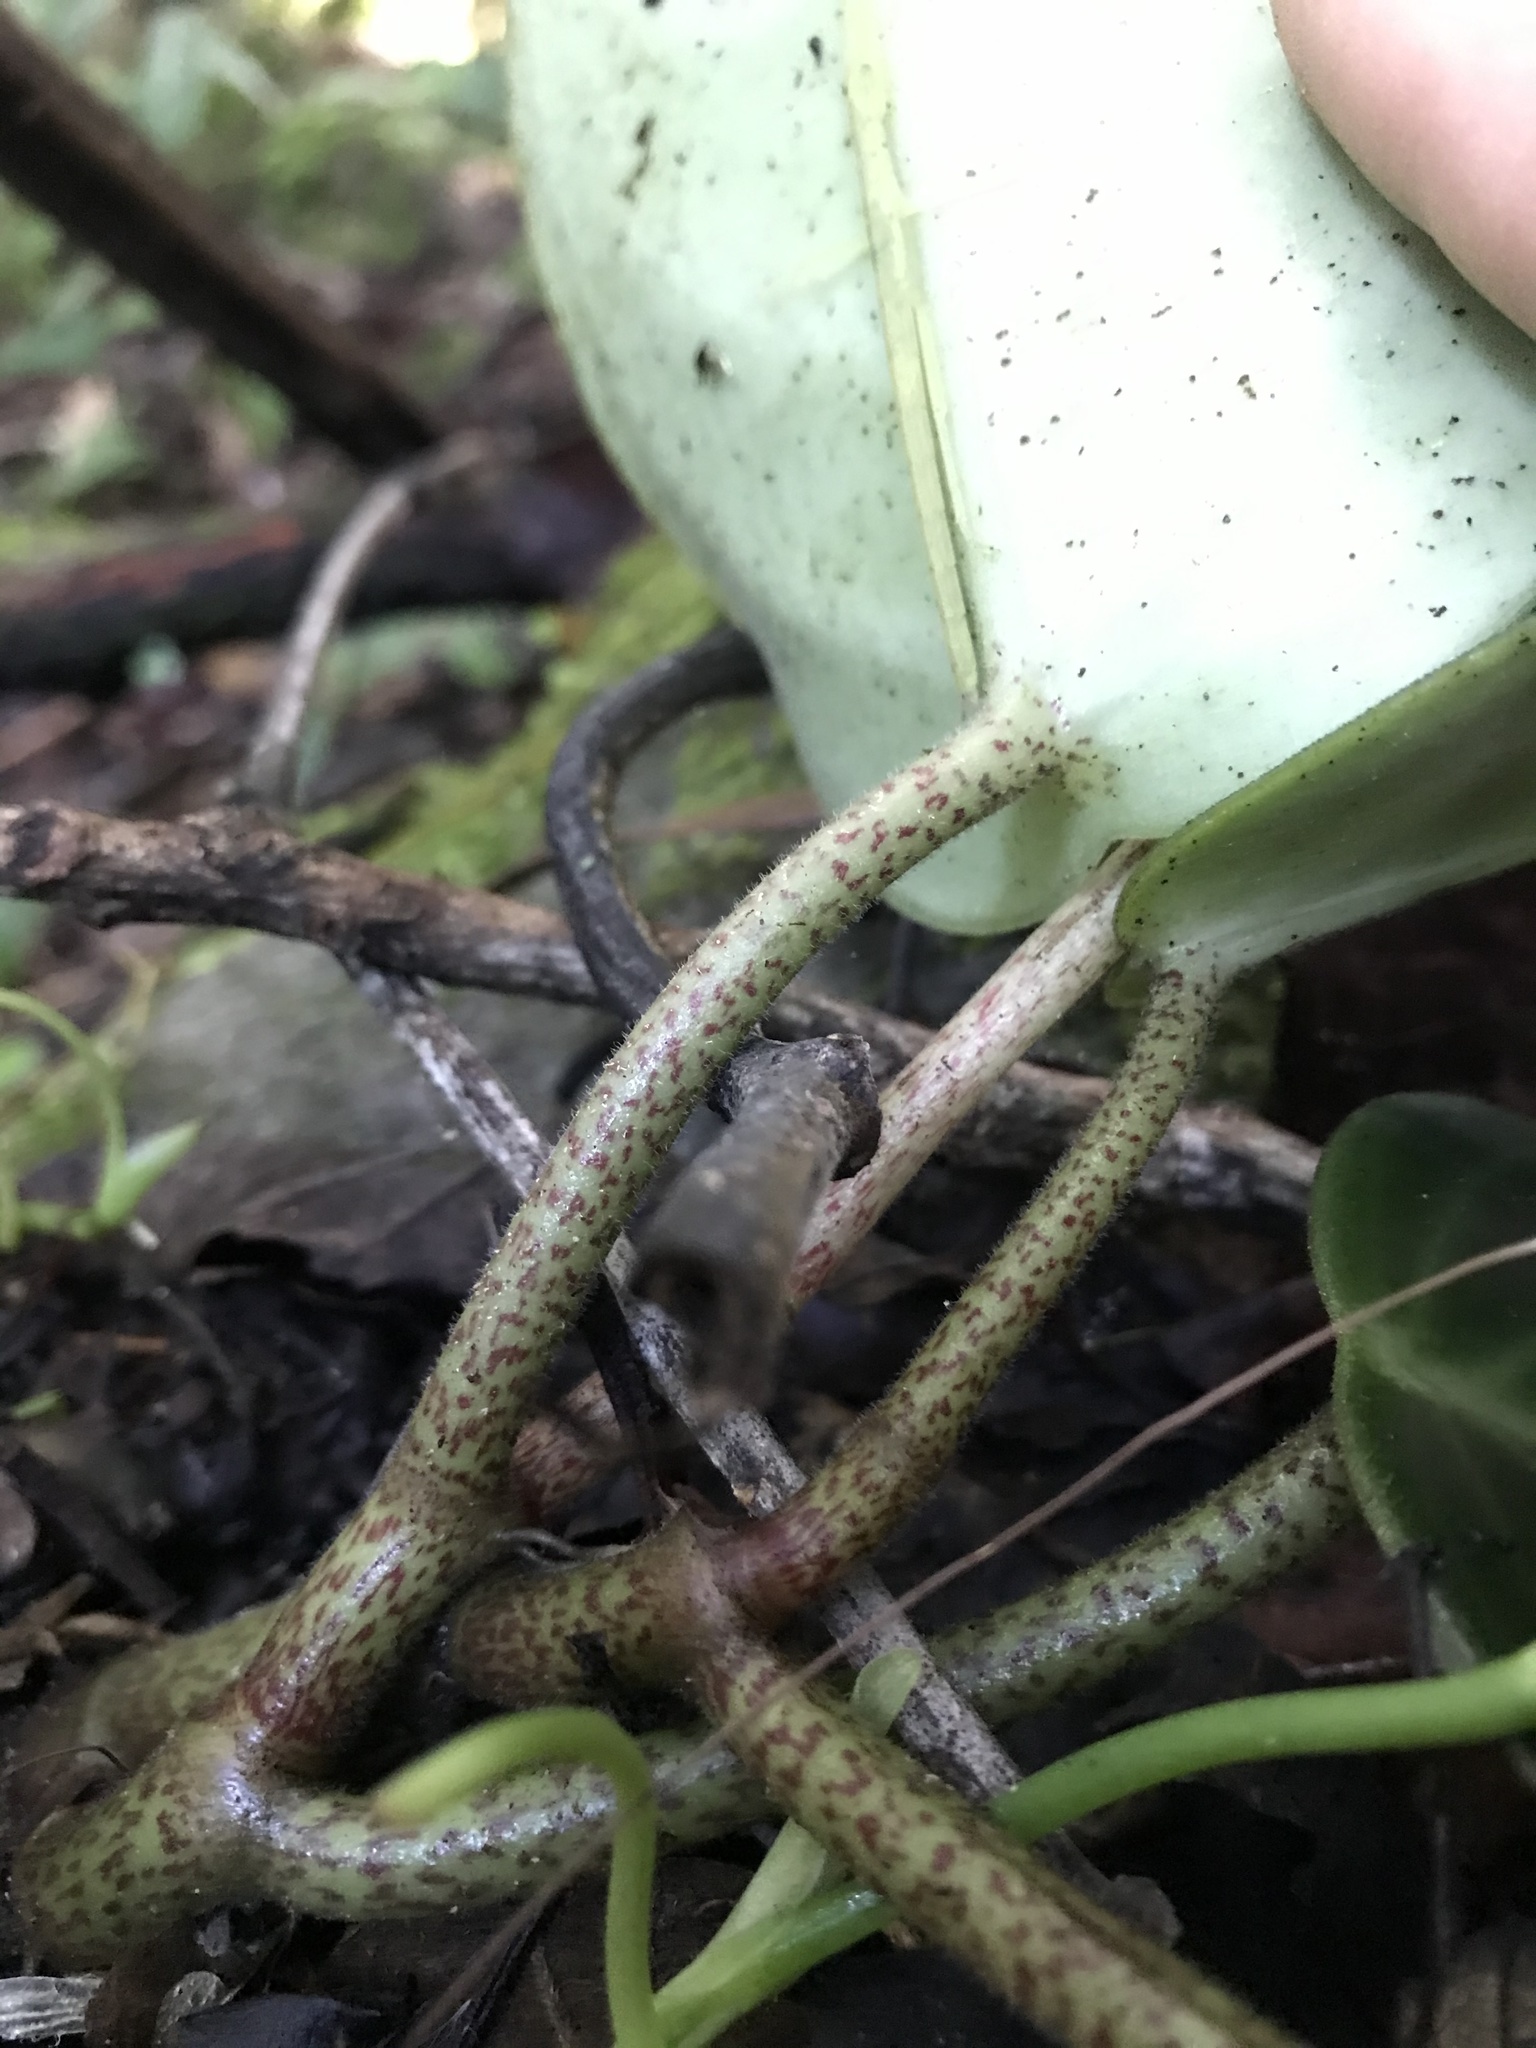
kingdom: Plantae
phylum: Tracheophyta
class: Magnoliopsida
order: Piperales
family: Piperaceae
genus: Peperomia
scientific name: Peperomia maculosa
